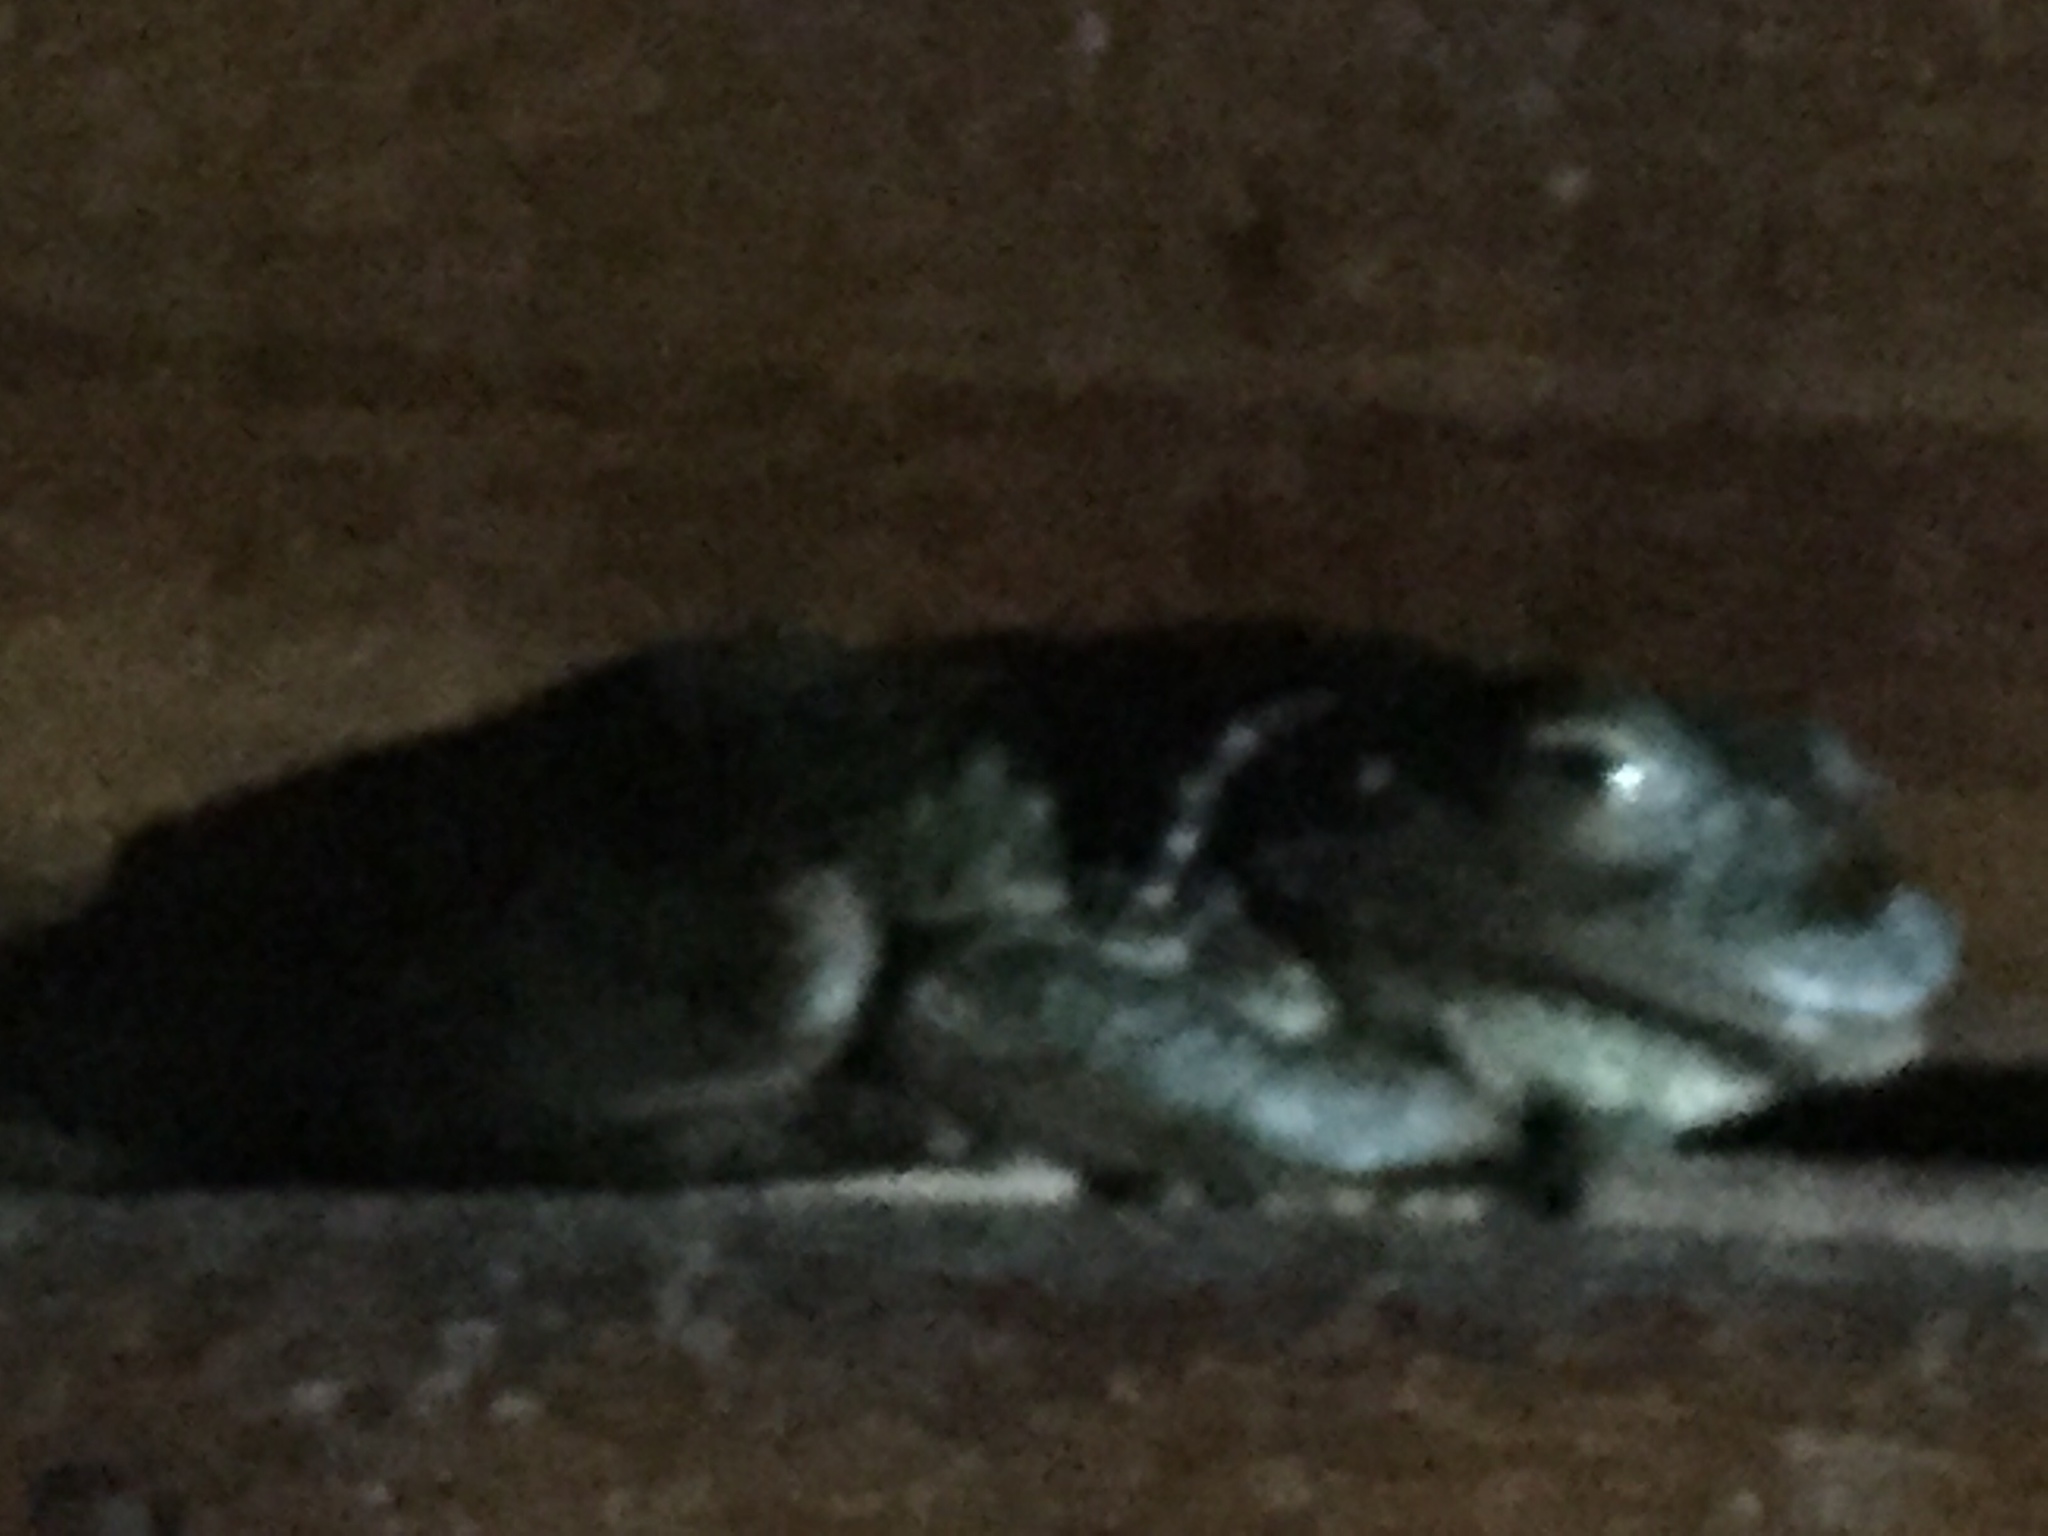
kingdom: Animalia
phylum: Chordata
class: Amphibia
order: Anura
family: Hylidae
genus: Osteopilus
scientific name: Osteopilus septentrionalis
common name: Cuban treefrog
